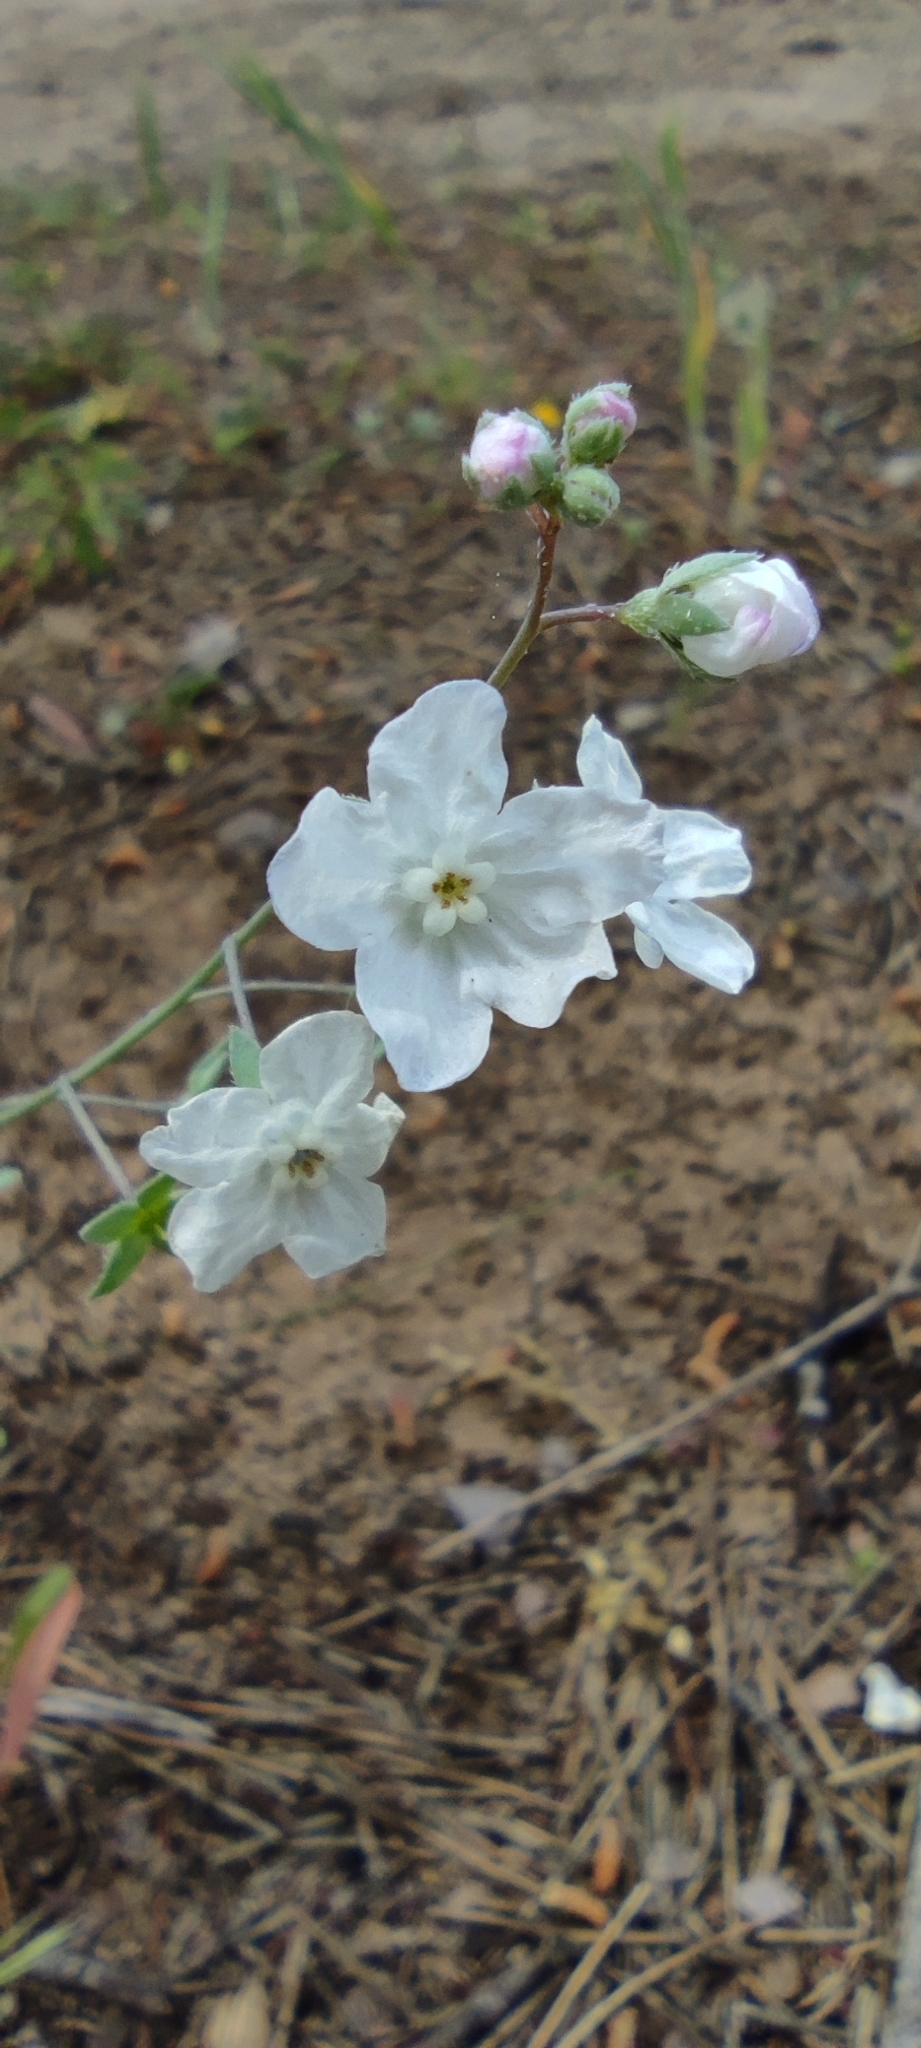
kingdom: Plantae
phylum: Tracheophyta
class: Magnoliopsida
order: Boraginales
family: Boraginaceae
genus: Iberodes
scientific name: Iberodes linifolia
